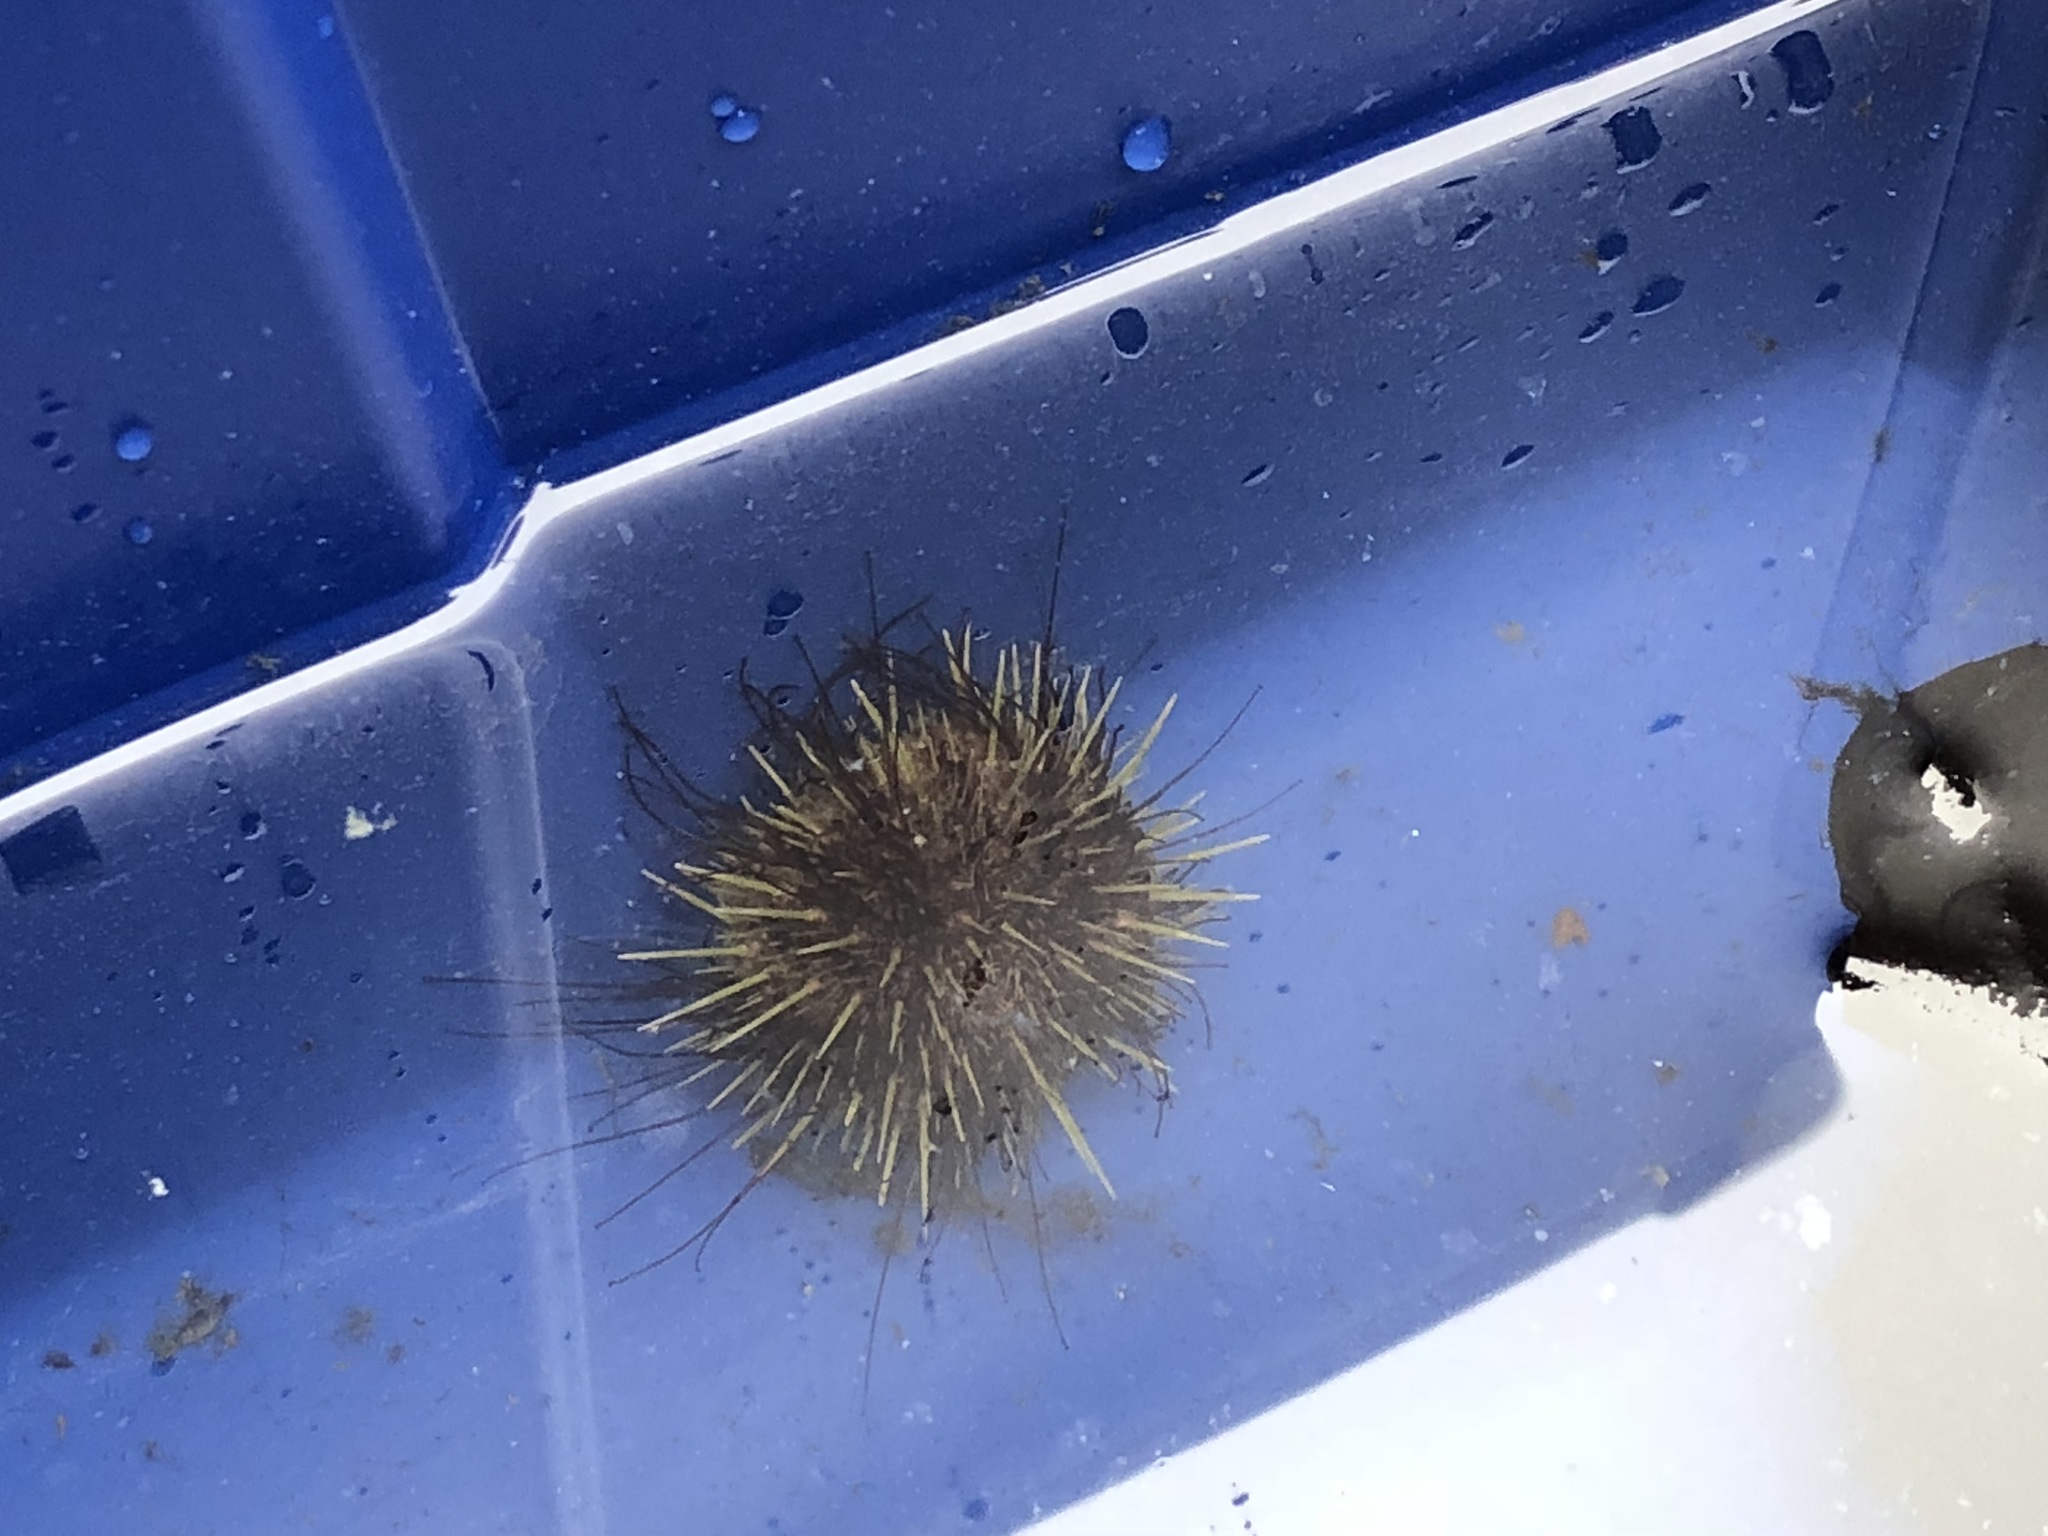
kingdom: Animalia
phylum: Echinodermata
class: Echinoidea
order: Camarodonta
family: Strongylocentrotidae
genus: Strongylocentrotus
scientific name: Strongylocentrotus pallidus
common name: White sea urchin
